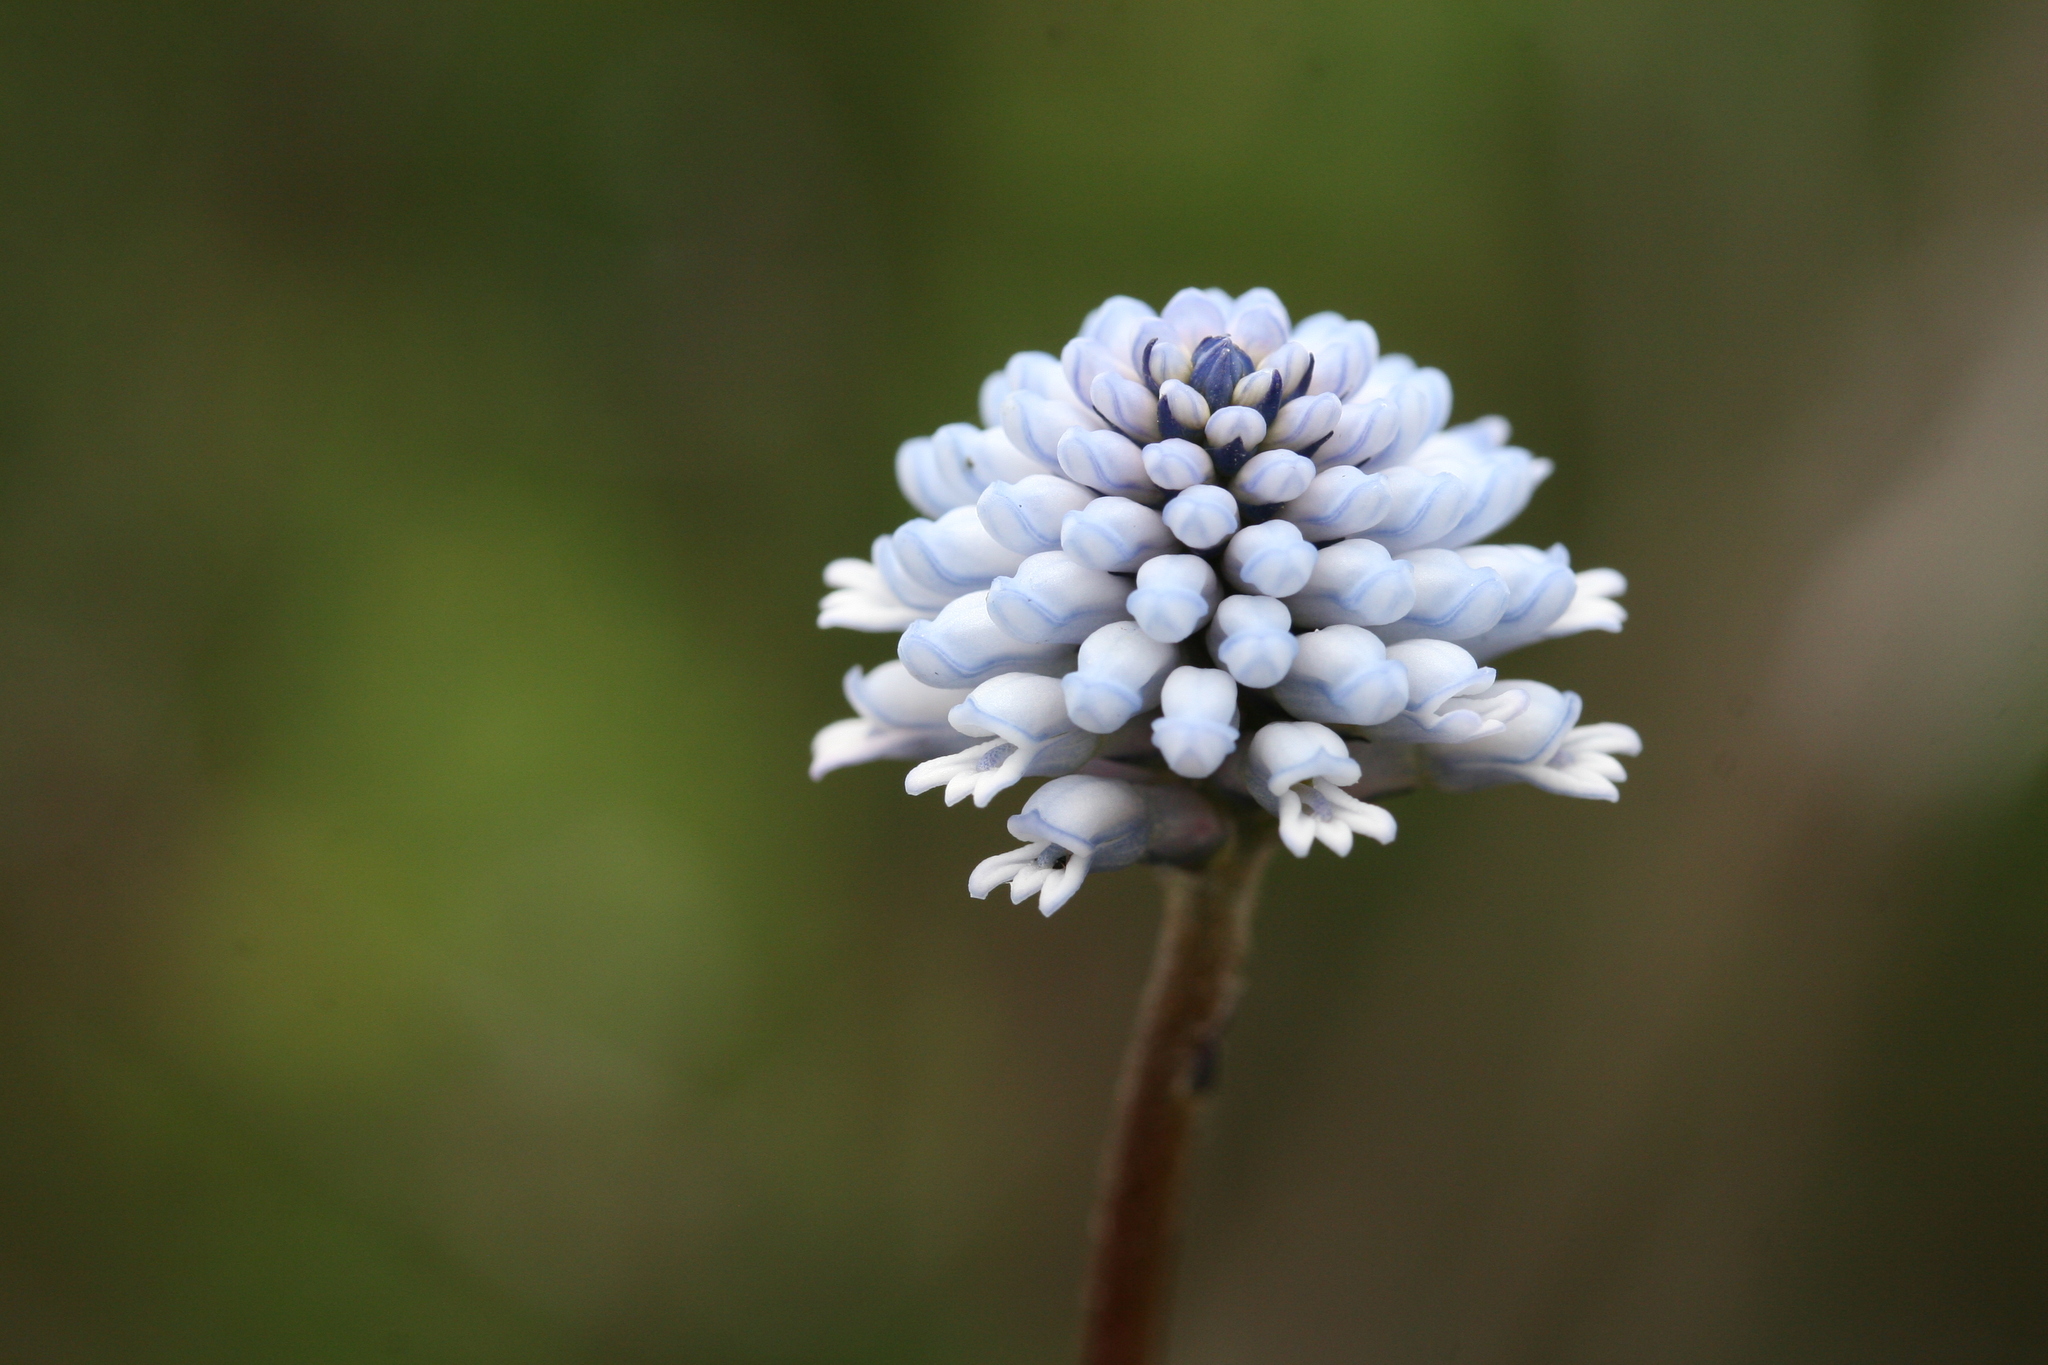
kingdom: Plantae
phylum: Tracheophyta
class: Magnoliopsida
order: Proteales
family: Proteaceae
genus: Conospermum
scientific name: Conospermum huegelii
